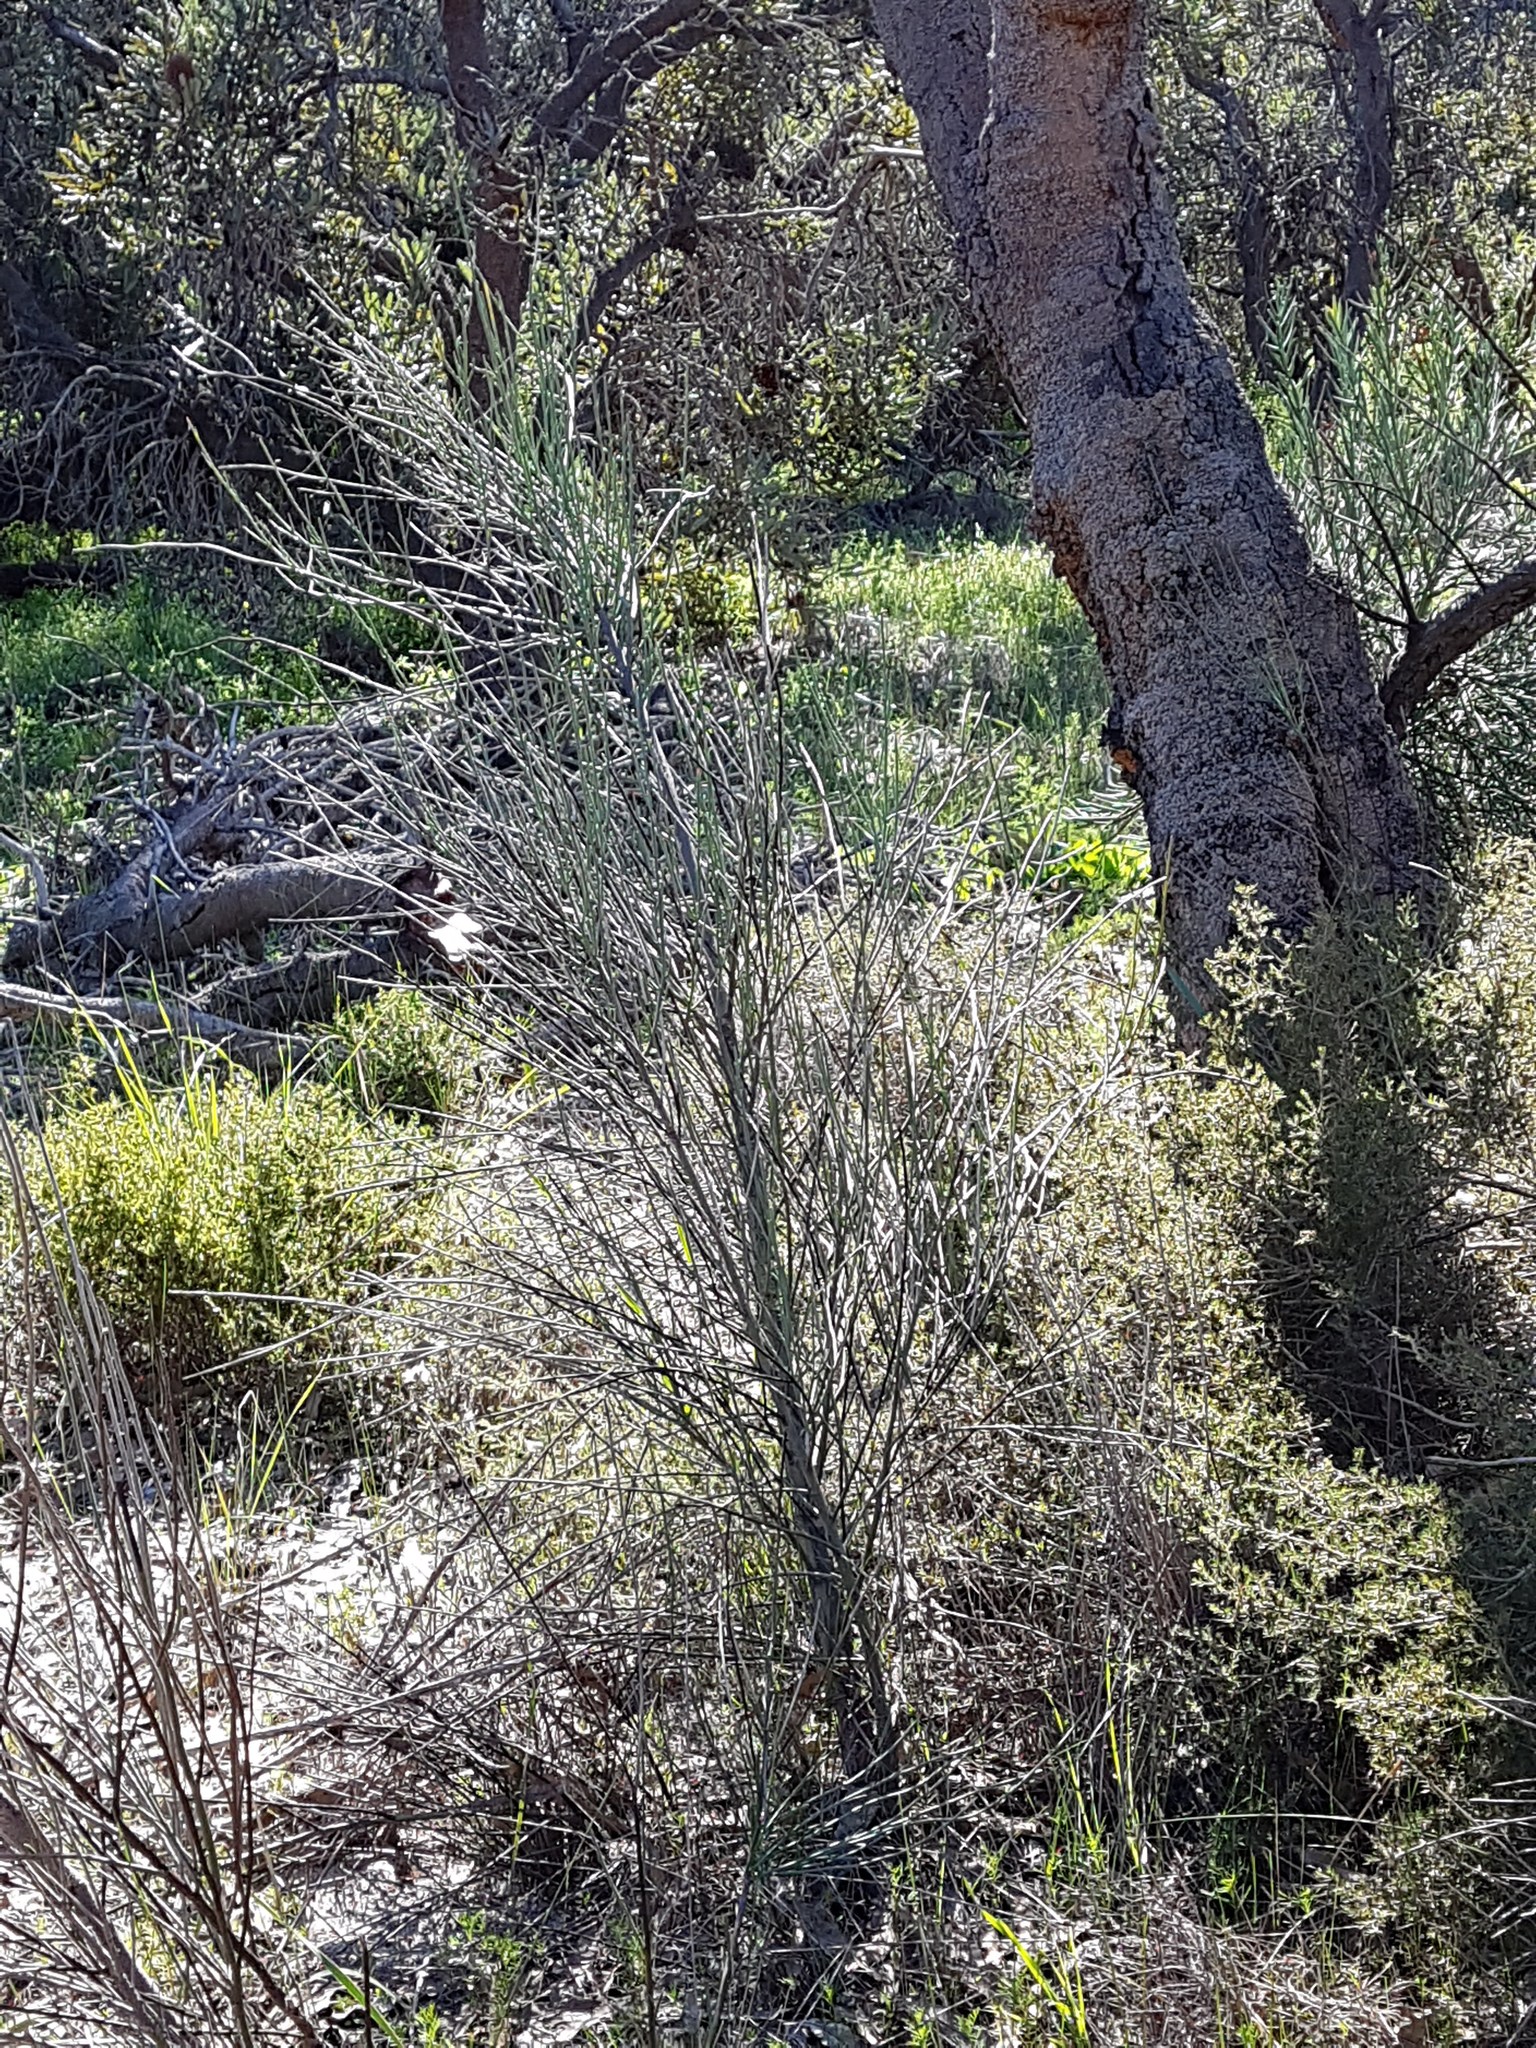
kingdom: Plantae
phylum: Tracheophyta
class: Magnoliopsida
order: Santalales
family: Loranthaceae
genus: Nuytsia
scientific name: Nuytsia floribunda
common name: Western australian christmastree
